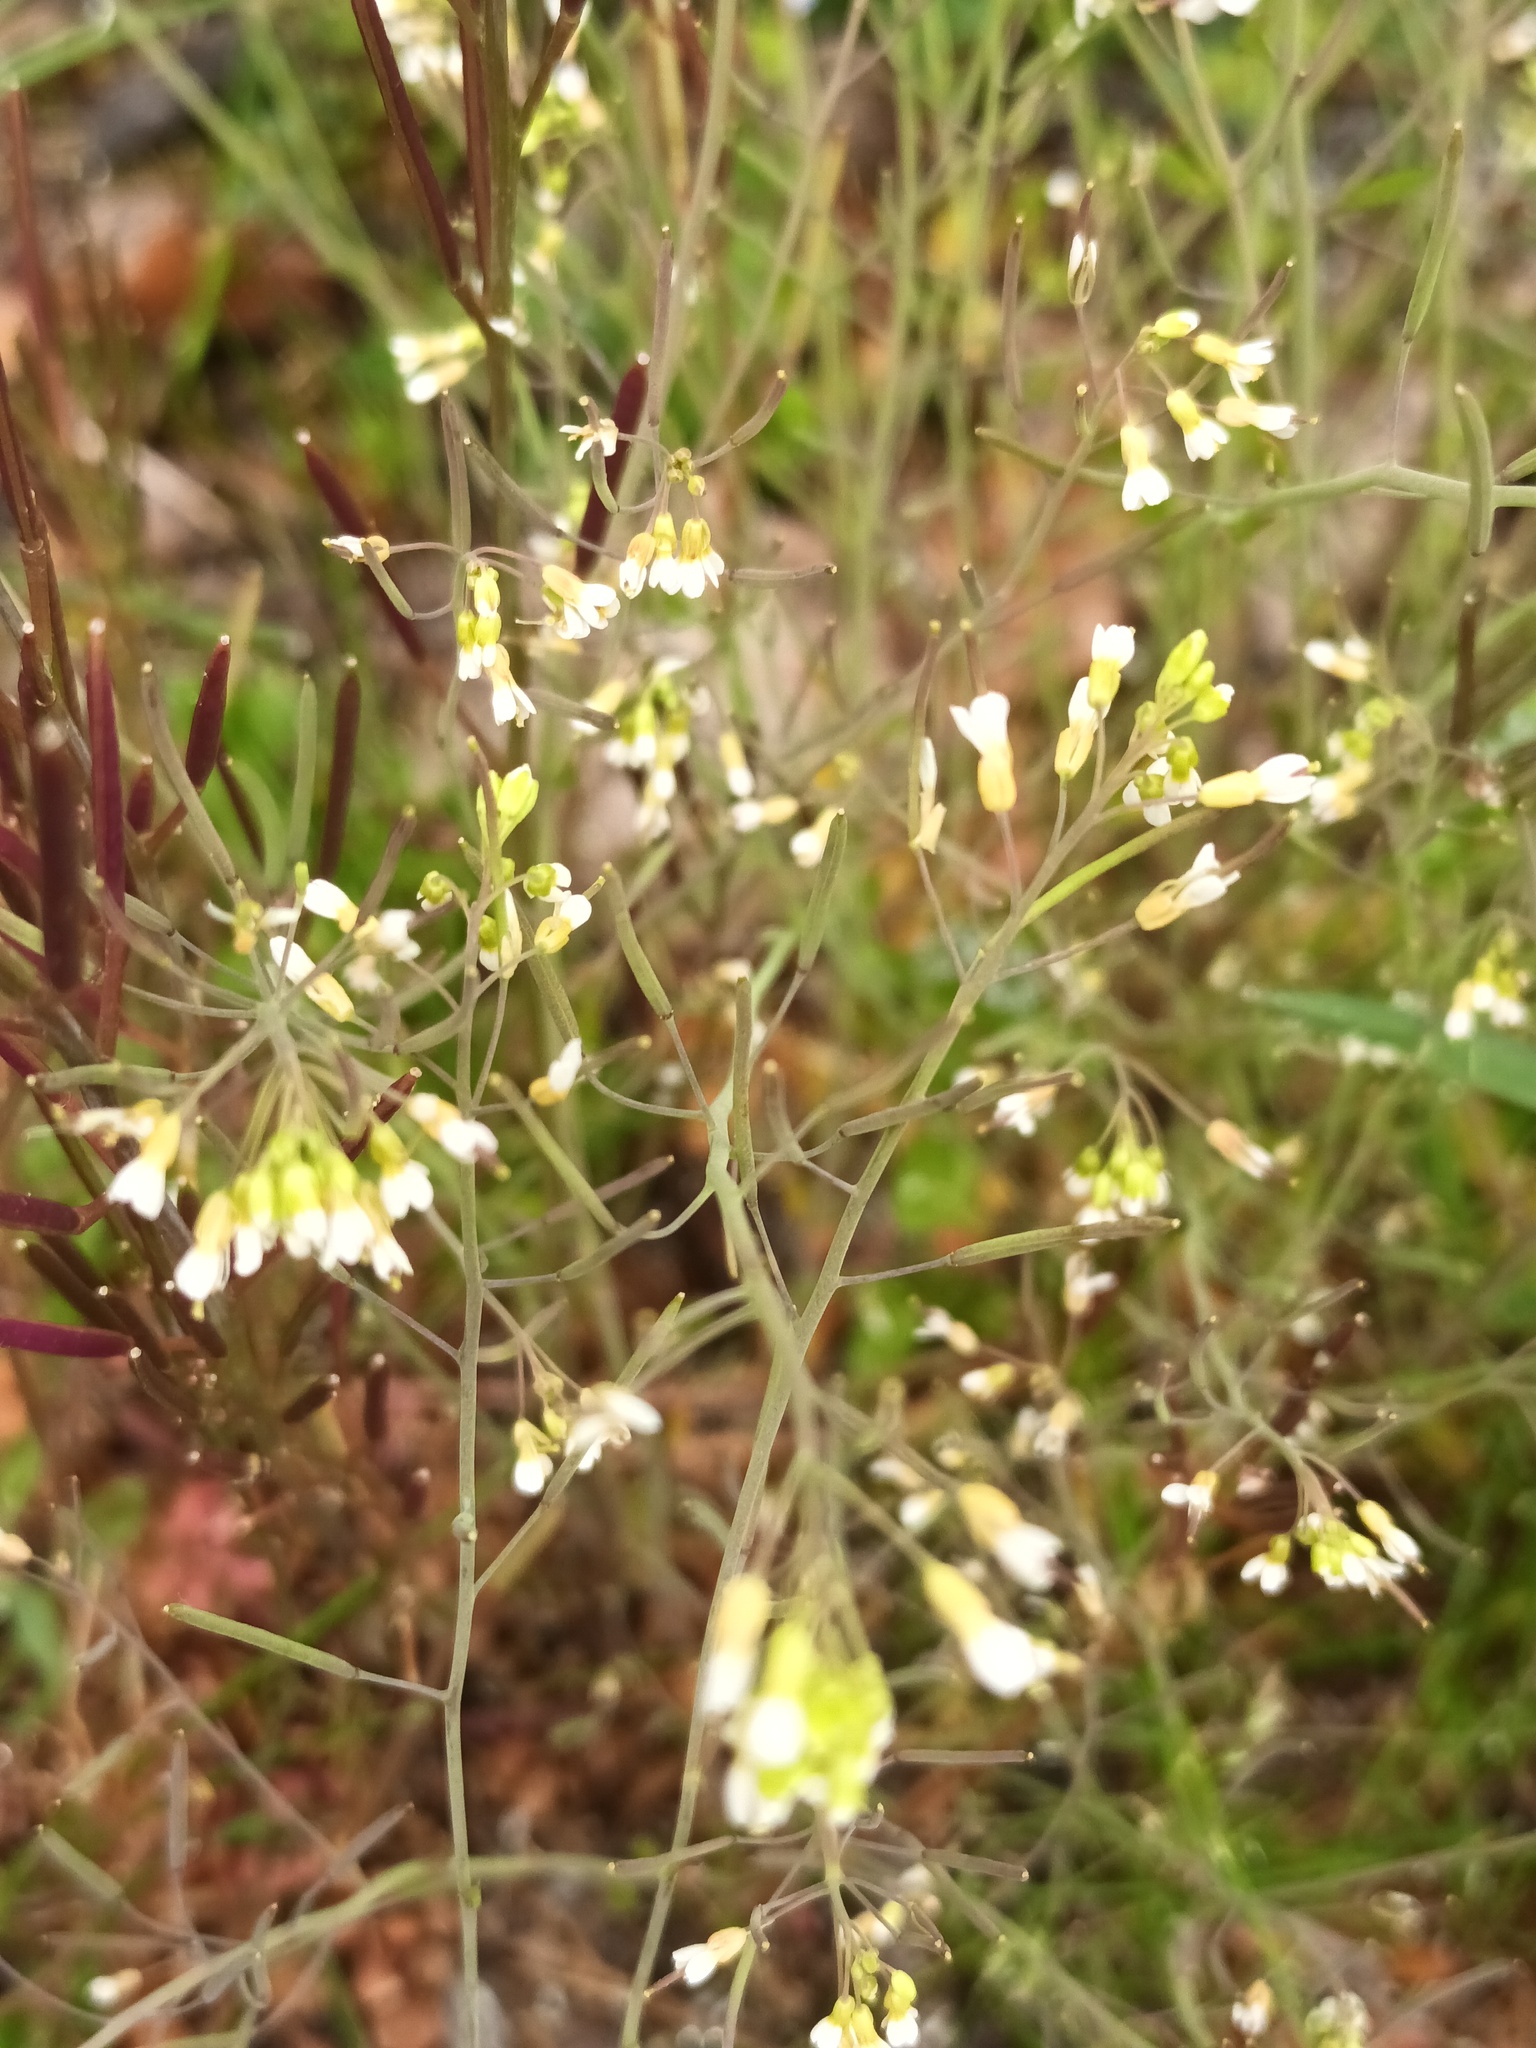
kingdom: Plantae
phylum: Tracheophyta
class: Magnoliopsida
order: Brassicales
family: Brassicaceae
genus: Arabidopsis
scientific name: Arabidopsis thaliana
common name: Thale cress
